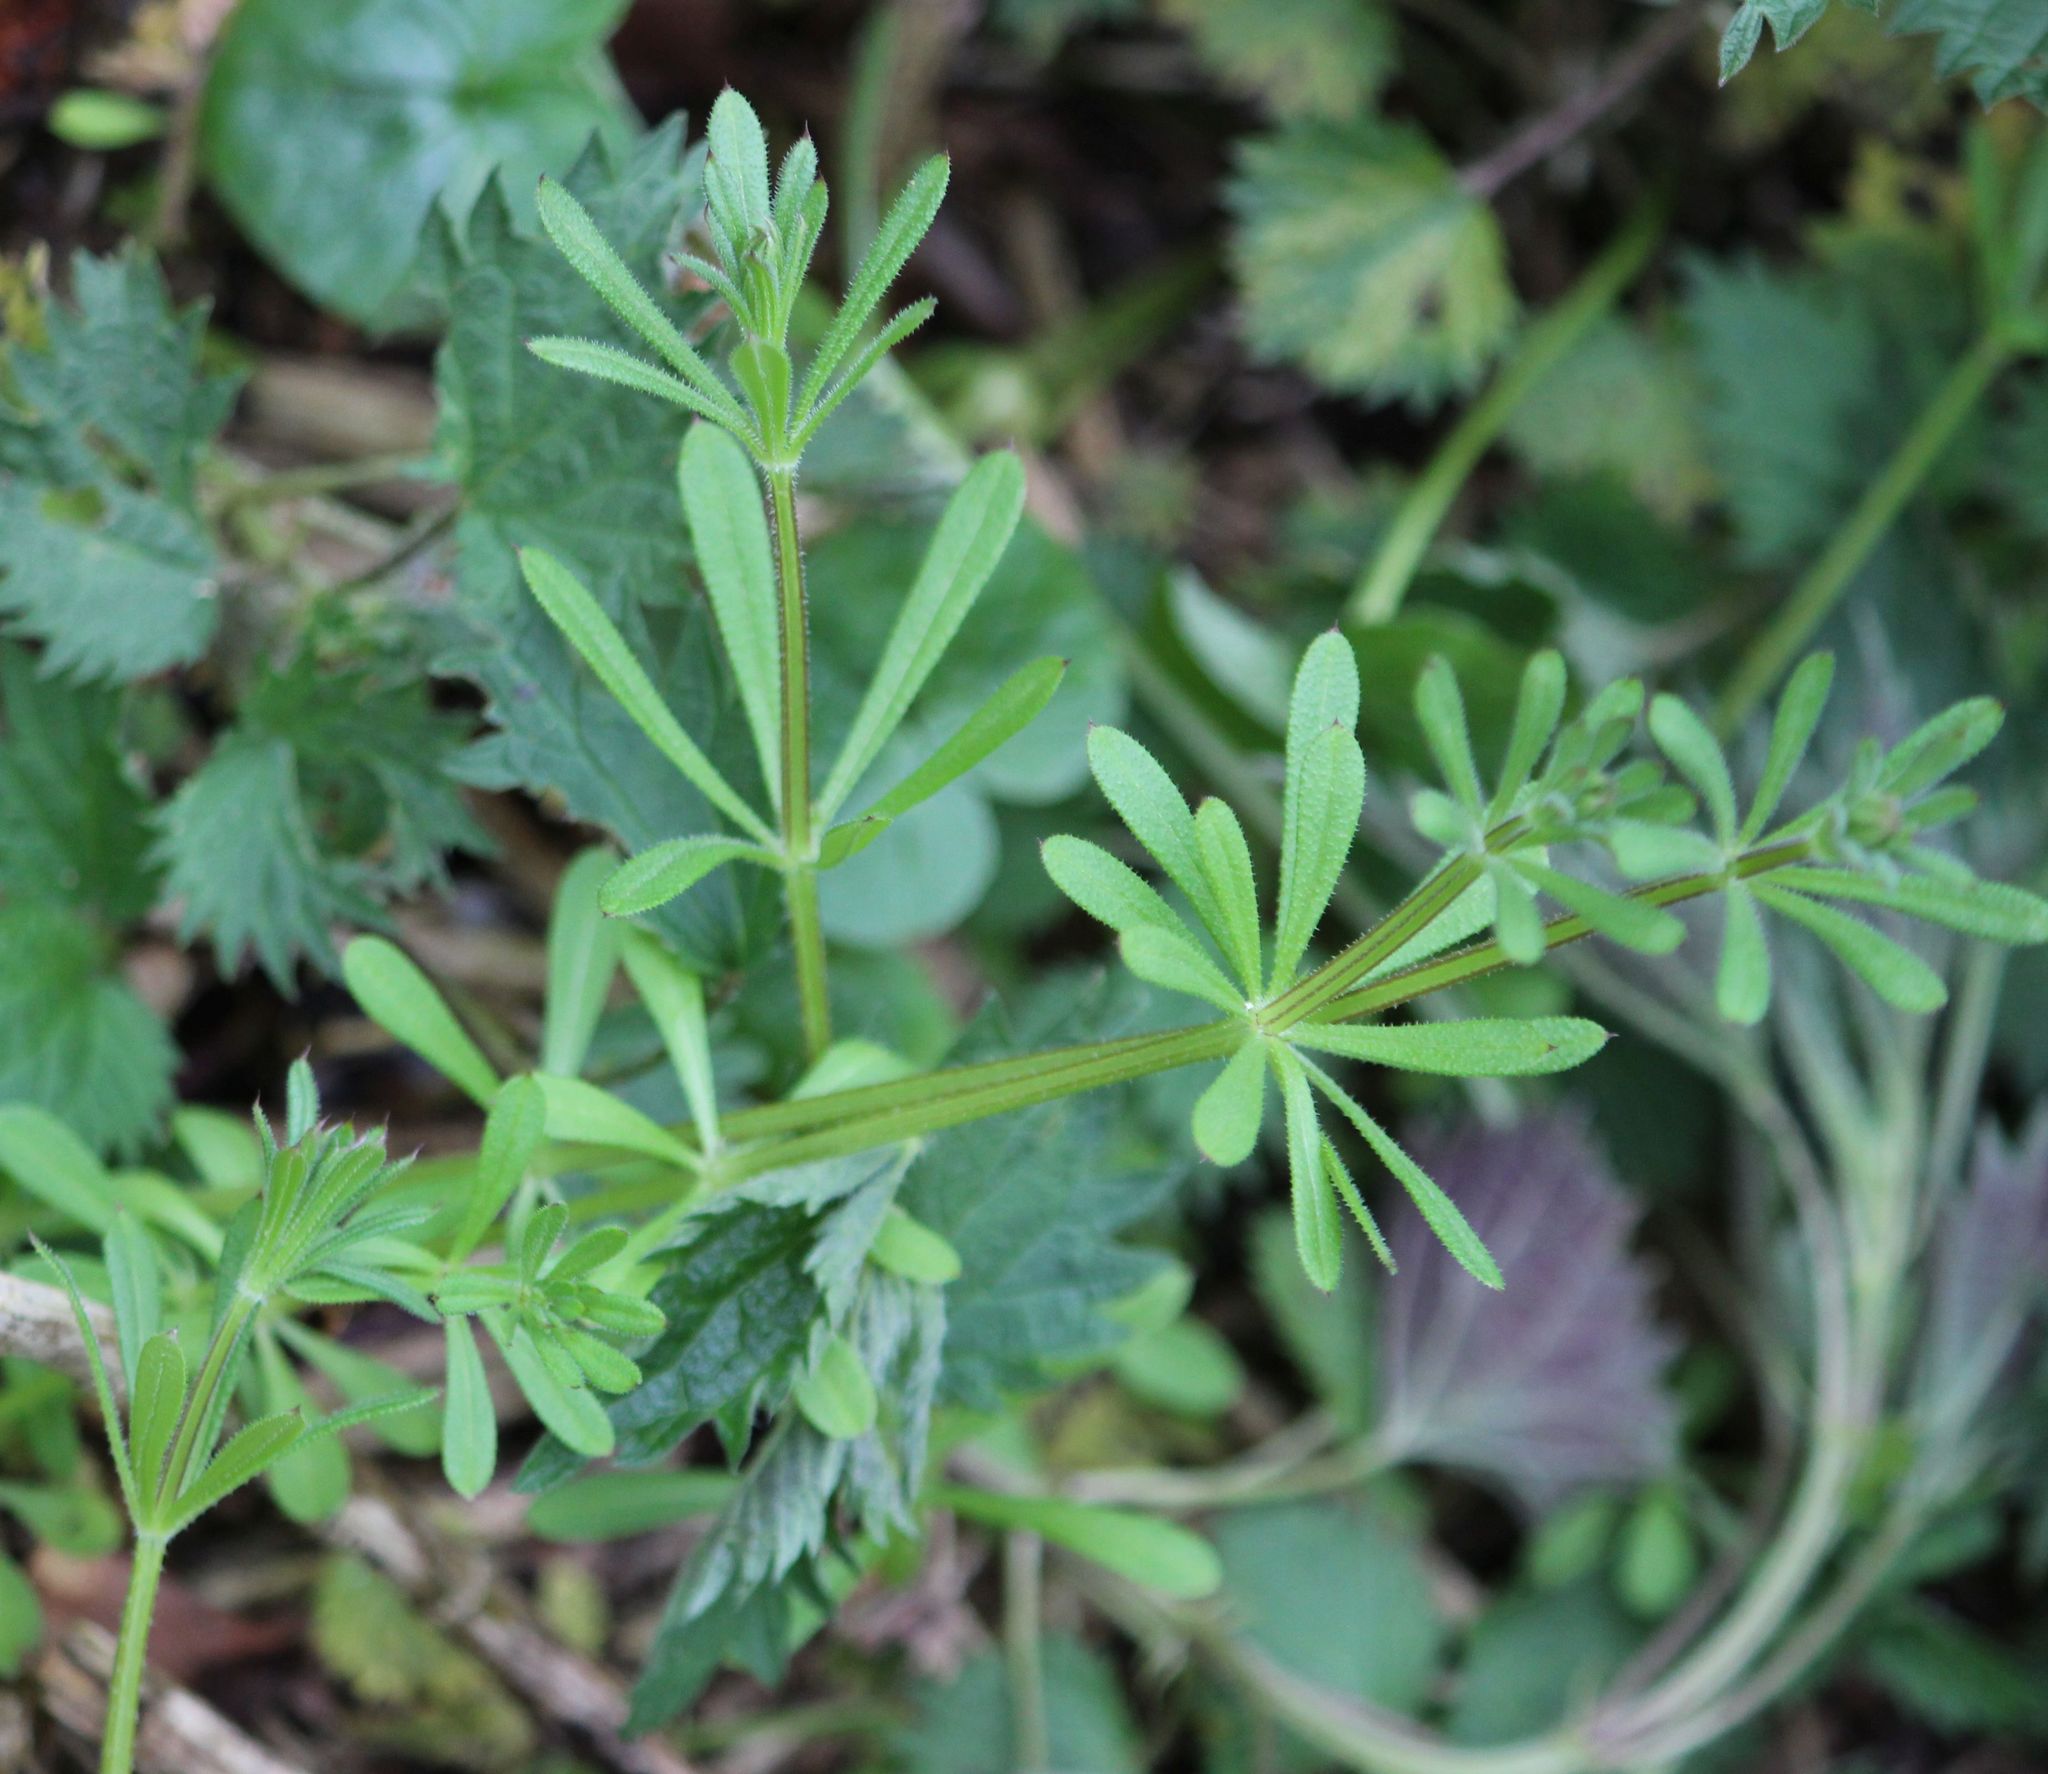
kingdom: Plantae
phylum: Tracheophyta
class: Magnoliopsida
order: Gentianales
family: Rubiaceae
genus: Galium
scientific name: Galium aparine
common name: Cleavers
